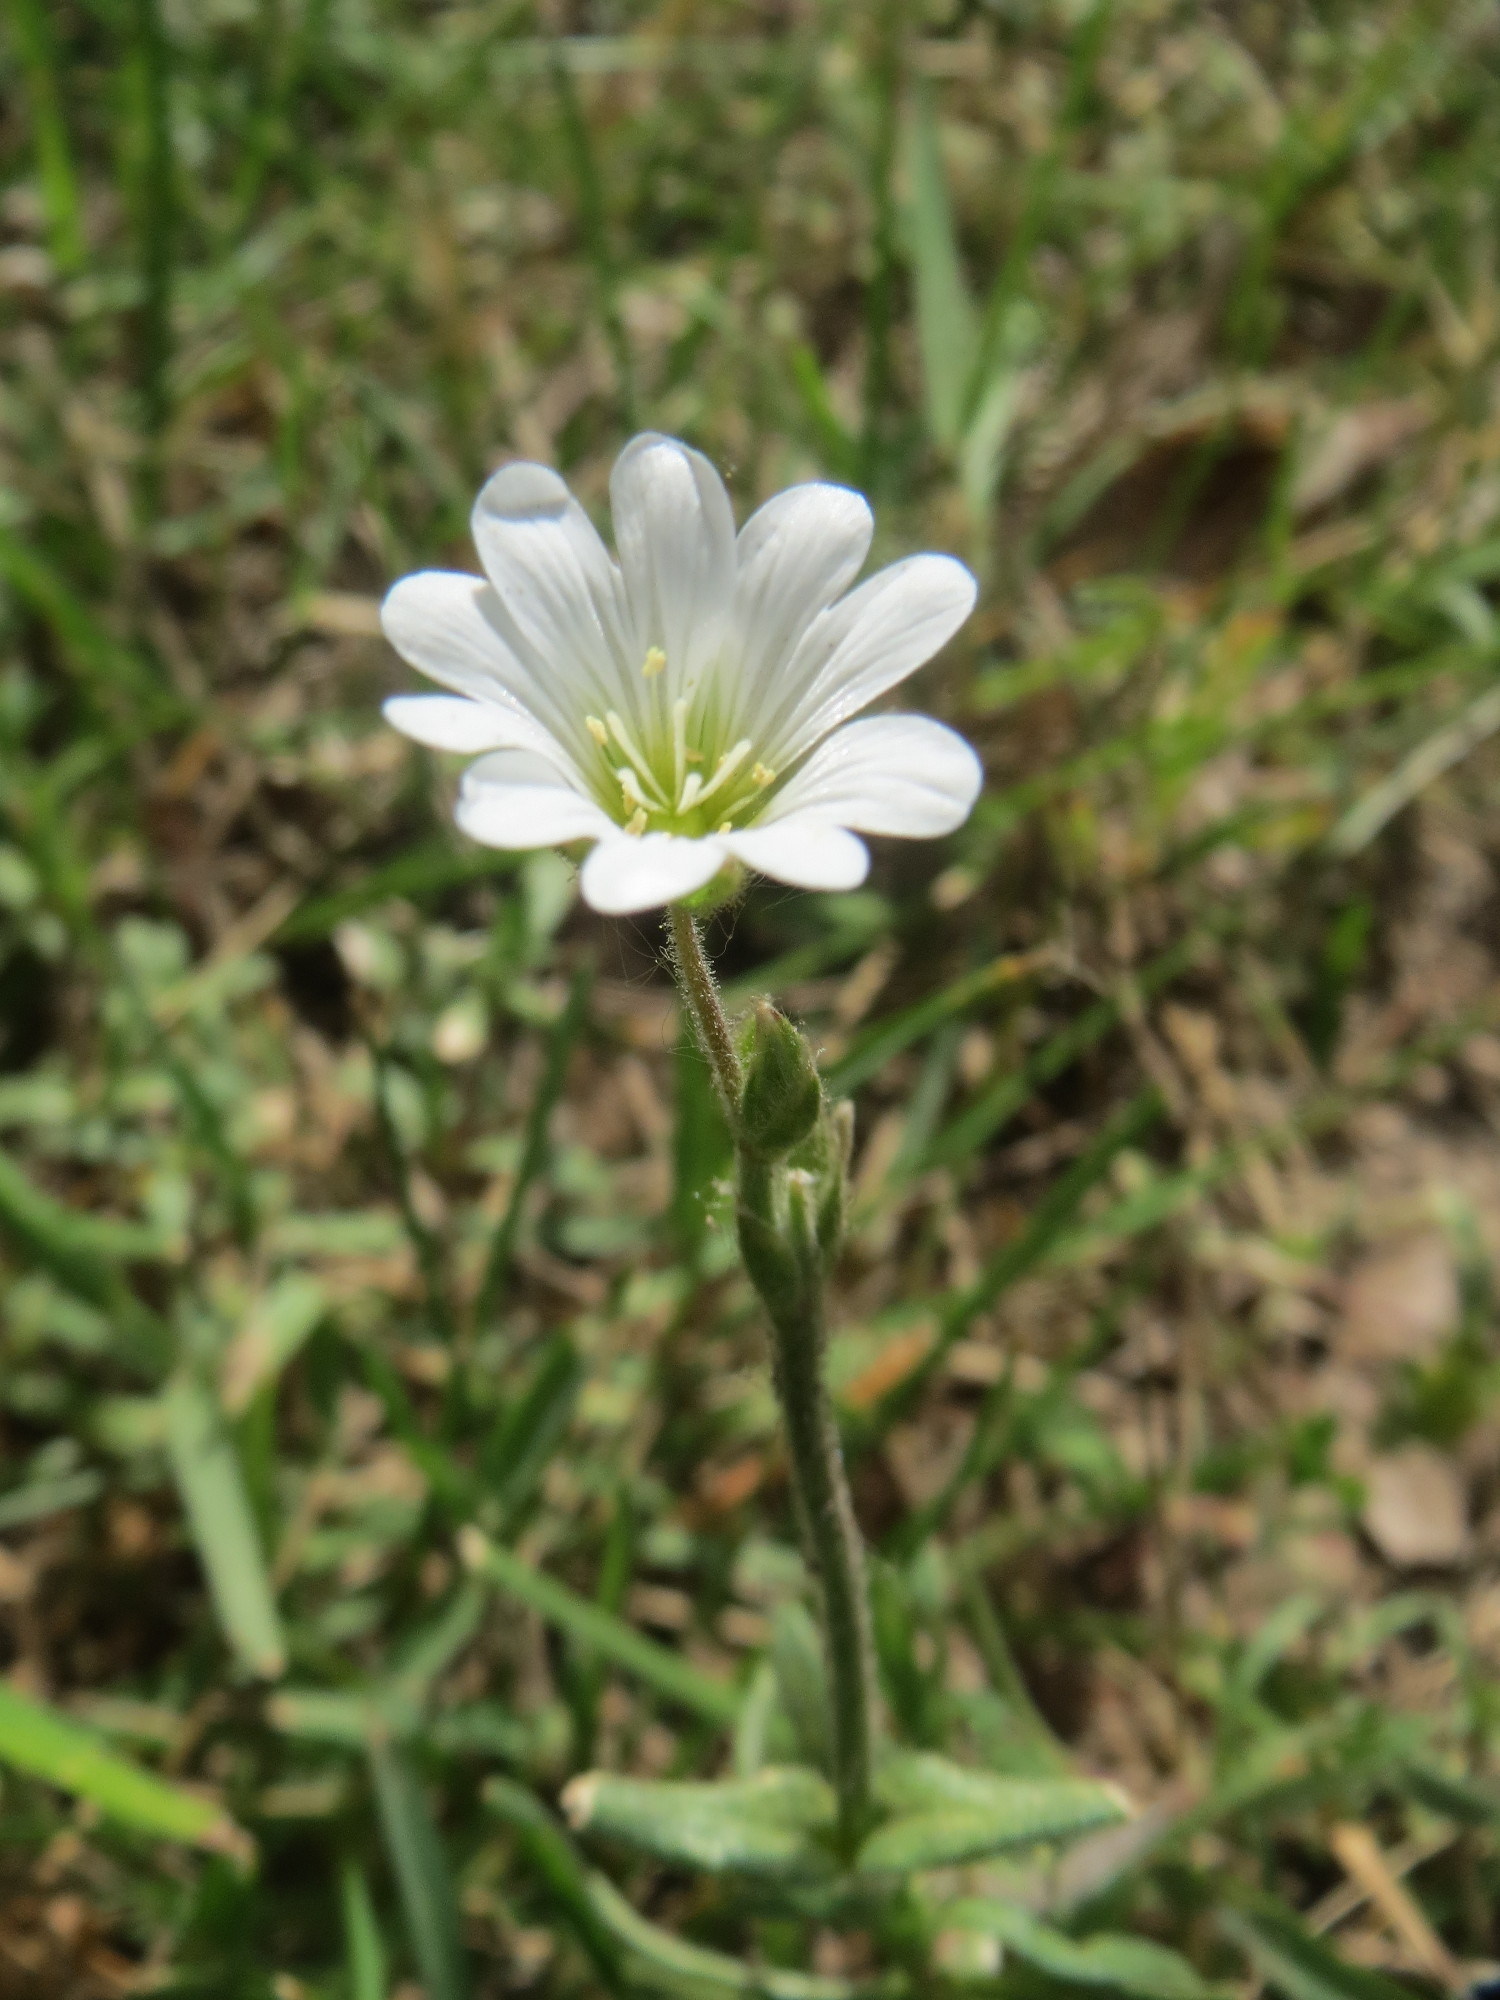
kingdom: Plantae
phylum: Tracheophyta
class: Magnoliopsida
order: Caryophyllales
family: Caryophyllaceae
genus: Cerastium
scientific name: Cerastium arvense
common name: Field mouse-ear
